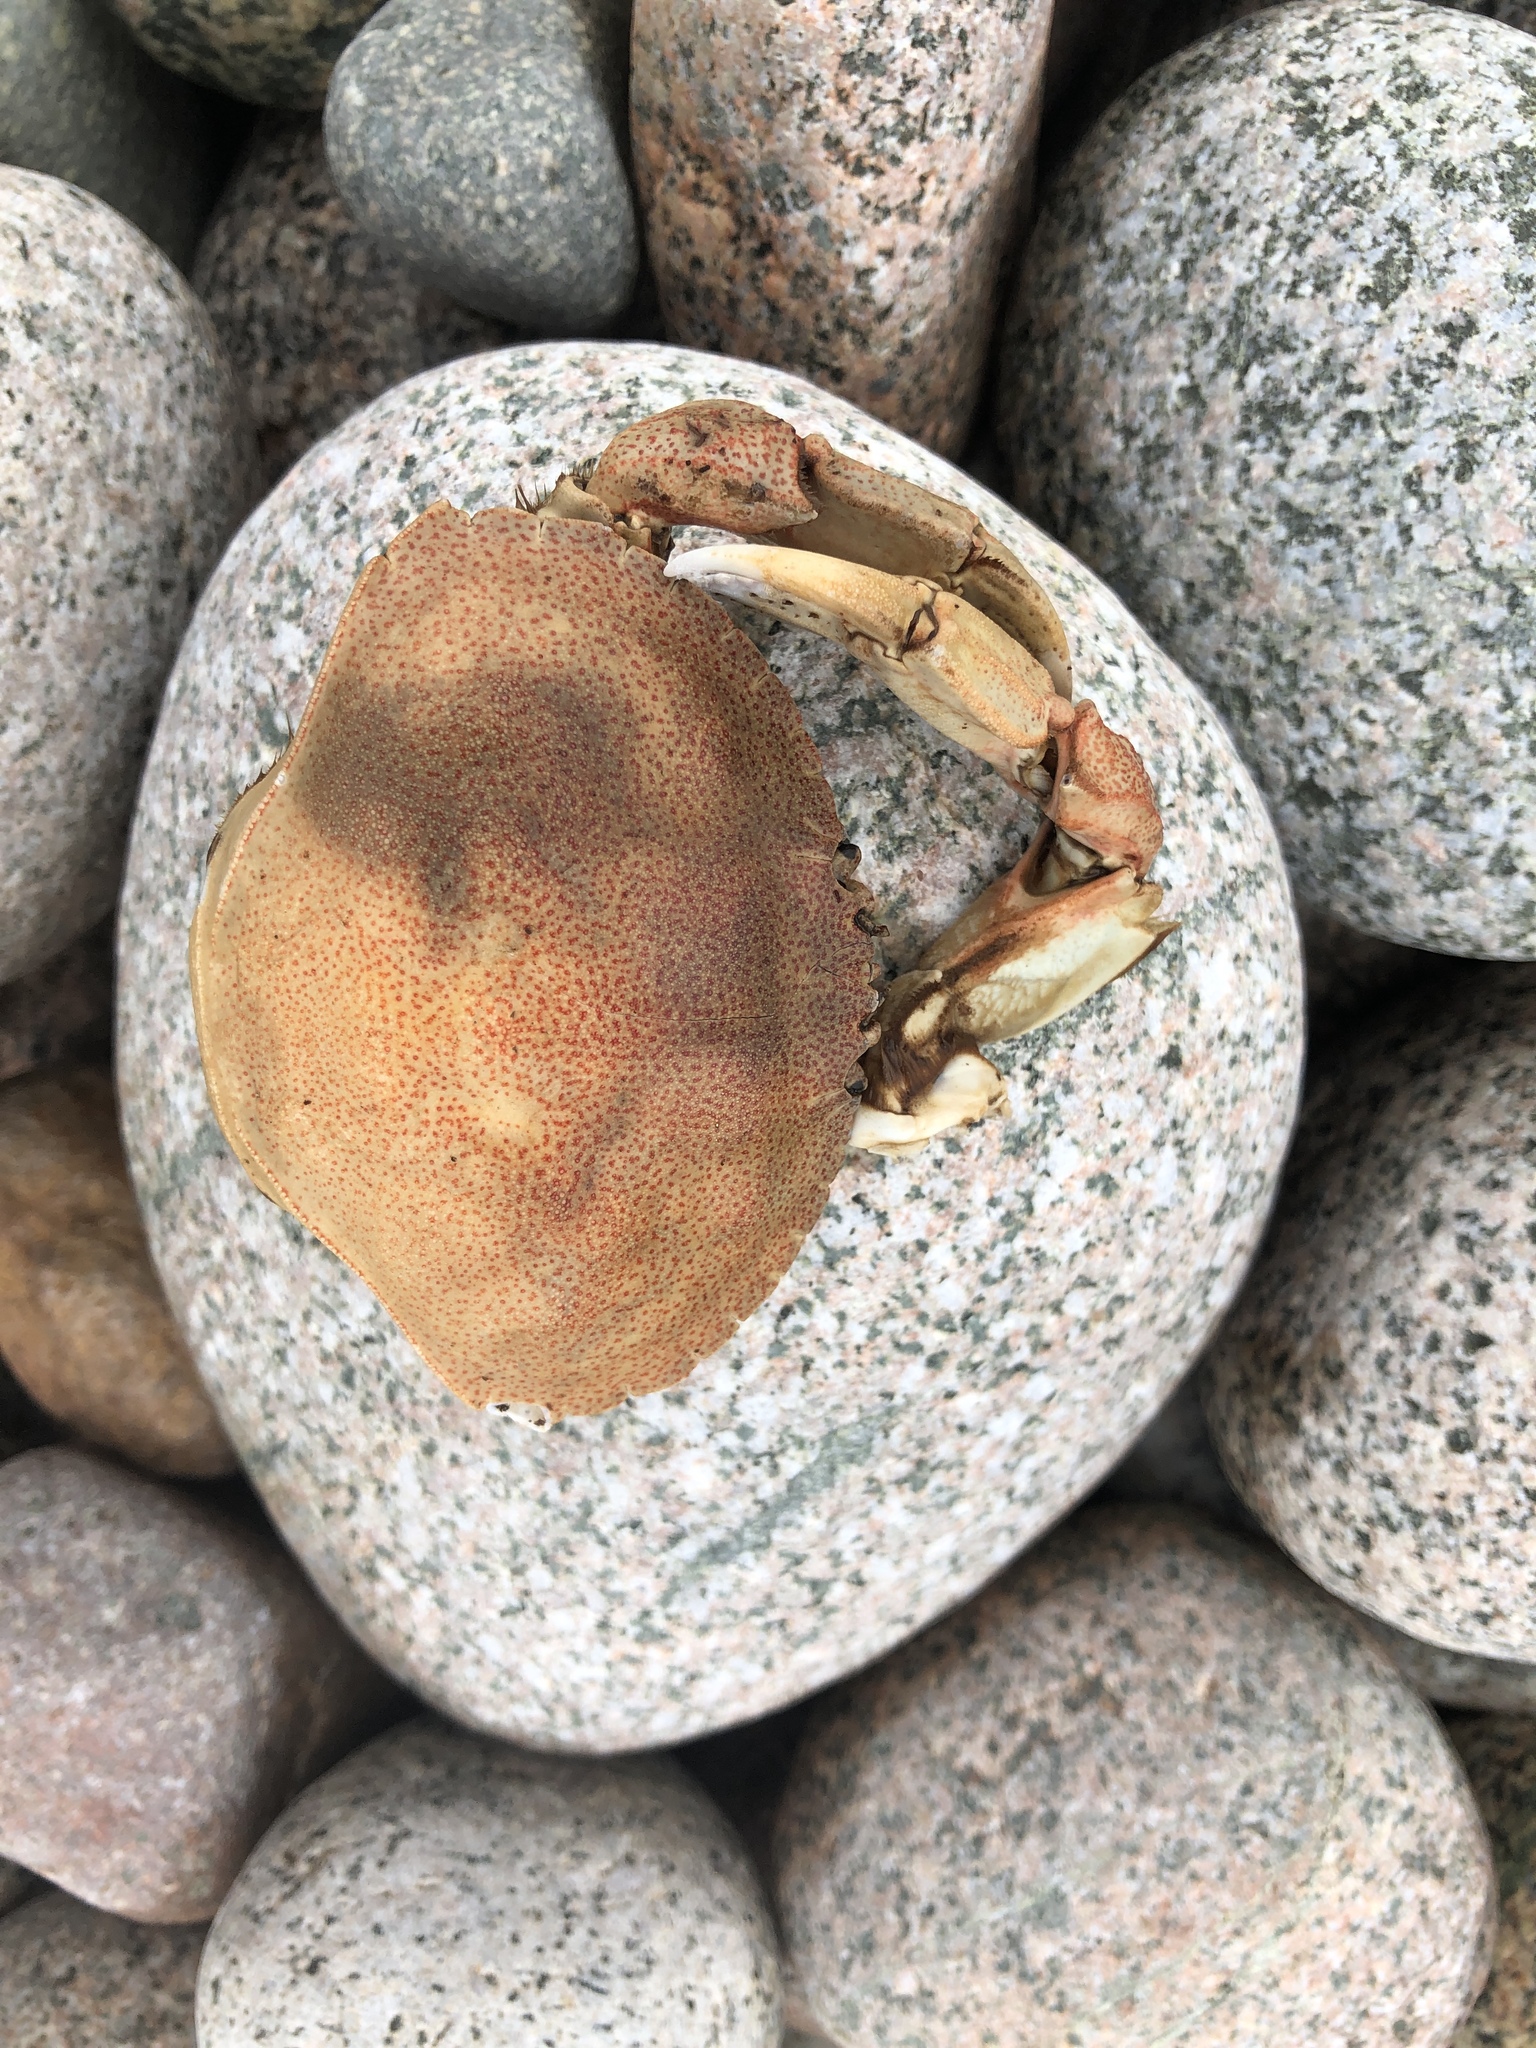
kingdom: Animalia
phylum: Arthropoda
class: Malacostraca
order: Decapoda
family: Cancridae
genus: Cancer
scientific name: Cancer irroratus
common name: Atlantic rock crab
